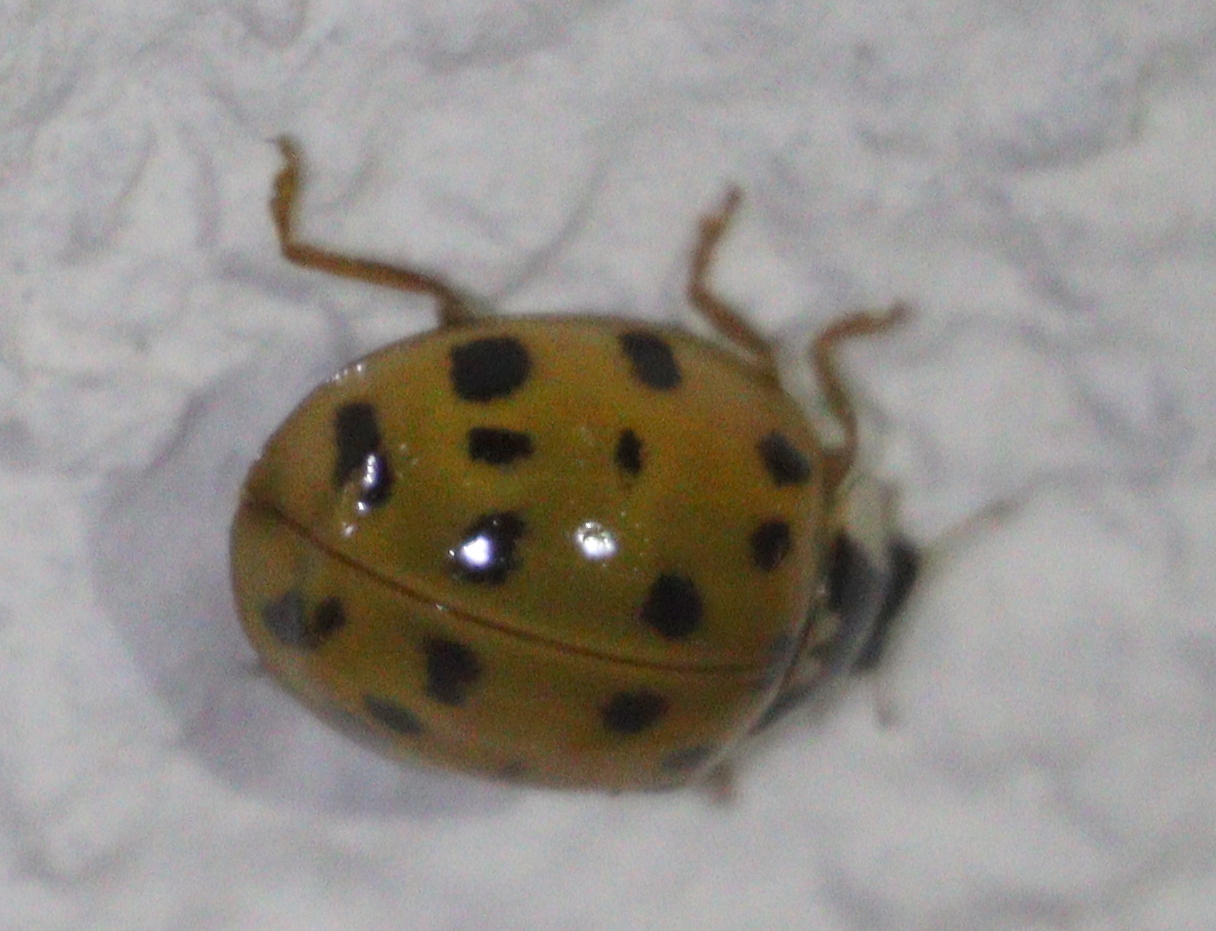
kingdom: Animalia
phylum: Arthropoda
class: Insecta
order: Coleoptera
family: Coccinellidae
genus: Harmonia
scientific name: Harmonia axyridis
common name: Harlequin ladybird
